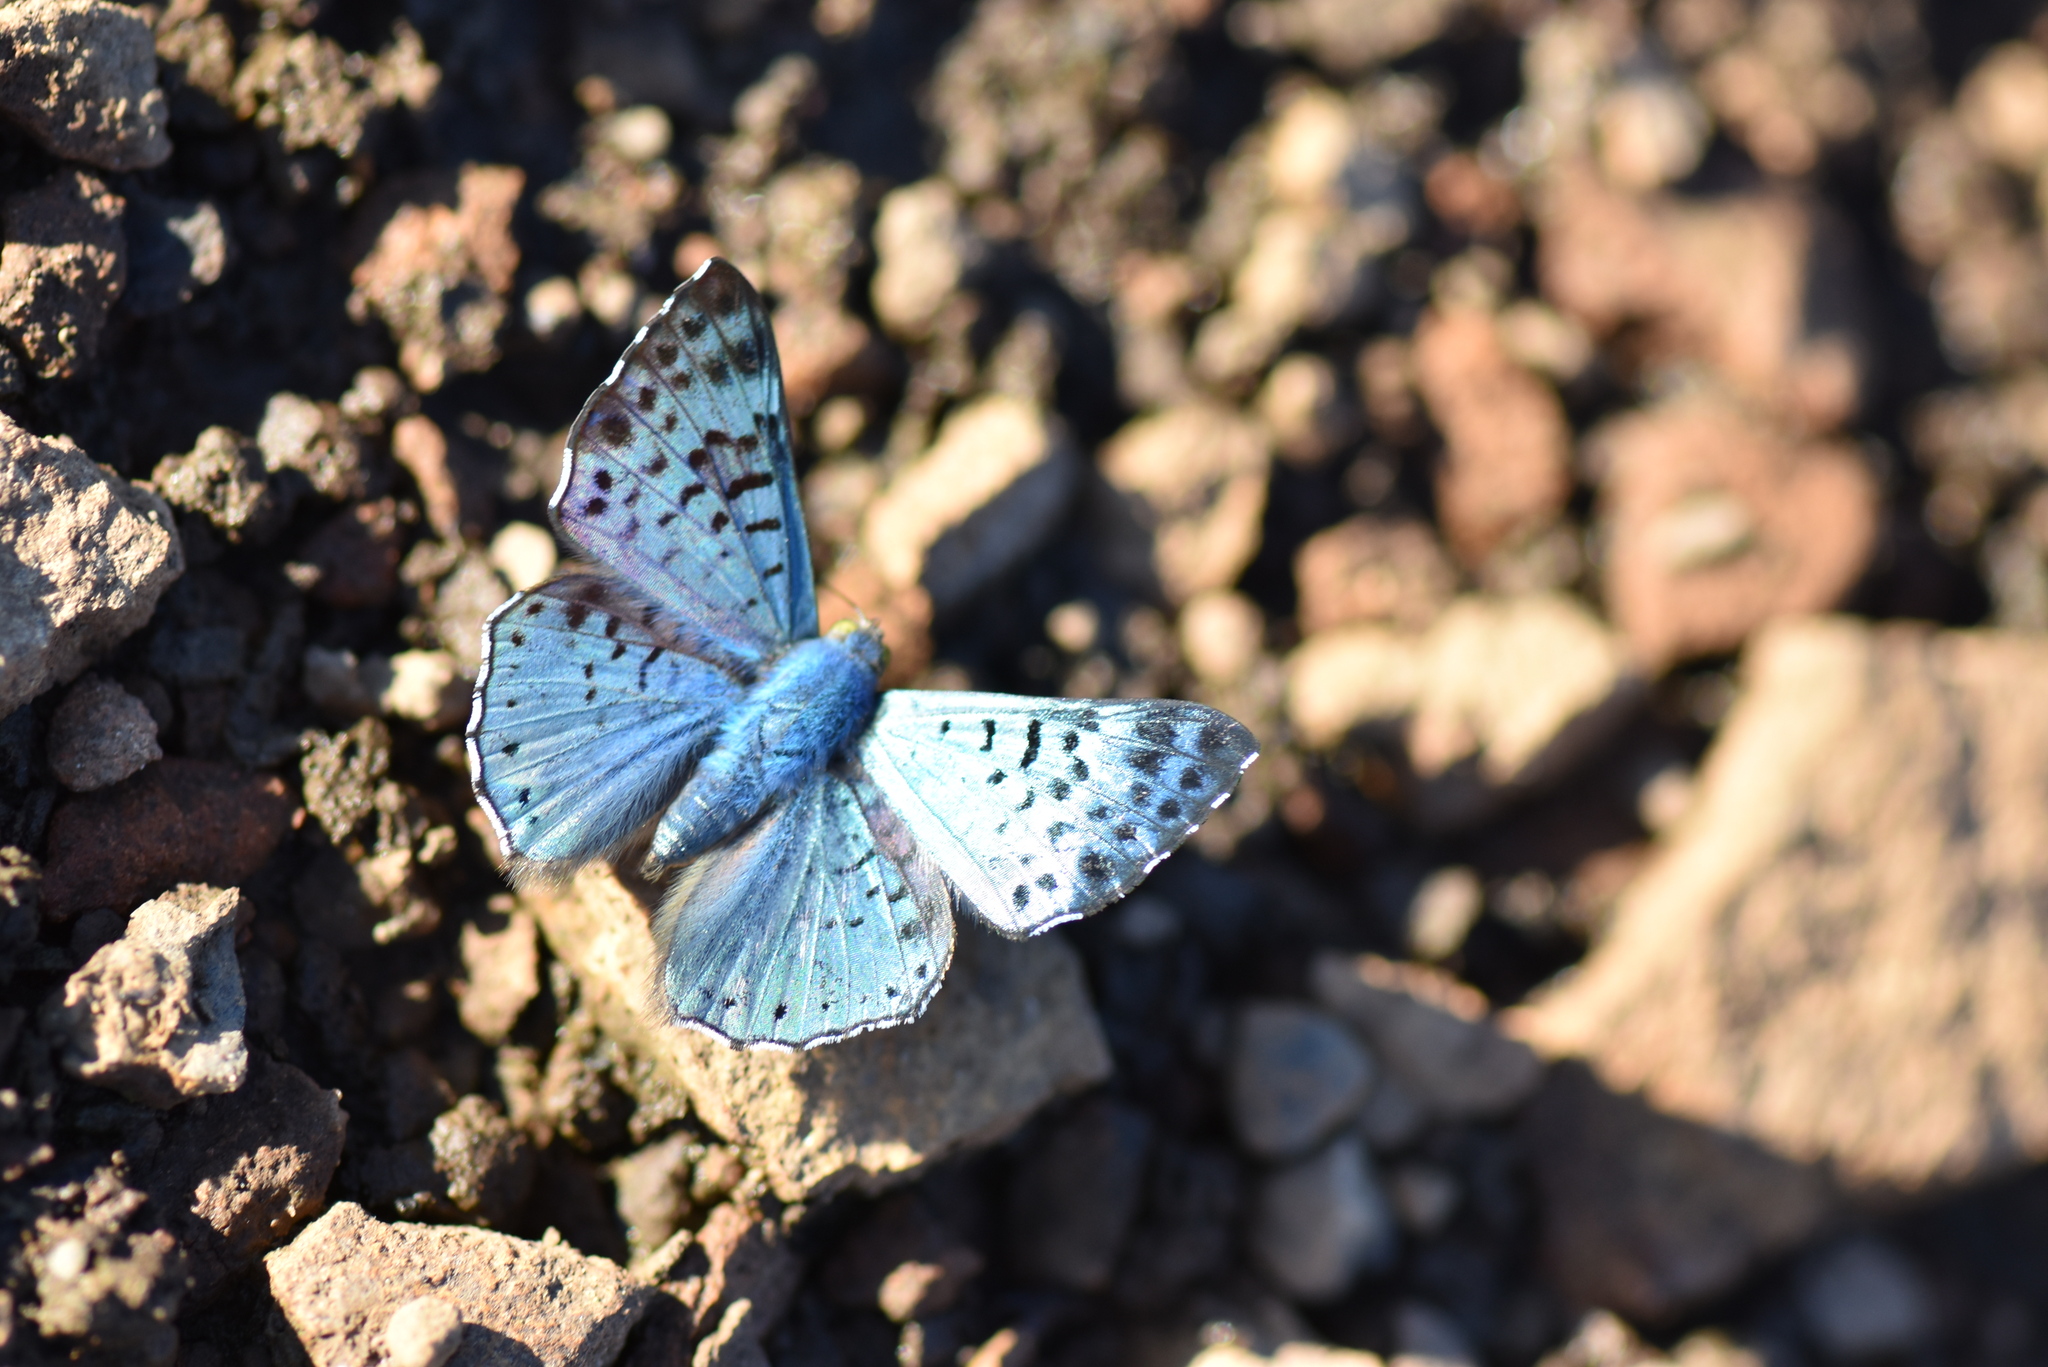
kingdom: Animalia
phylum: Arthropoda
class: Insecta
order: Lepidoptera
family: Riodinidae
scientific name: Riodinidae
